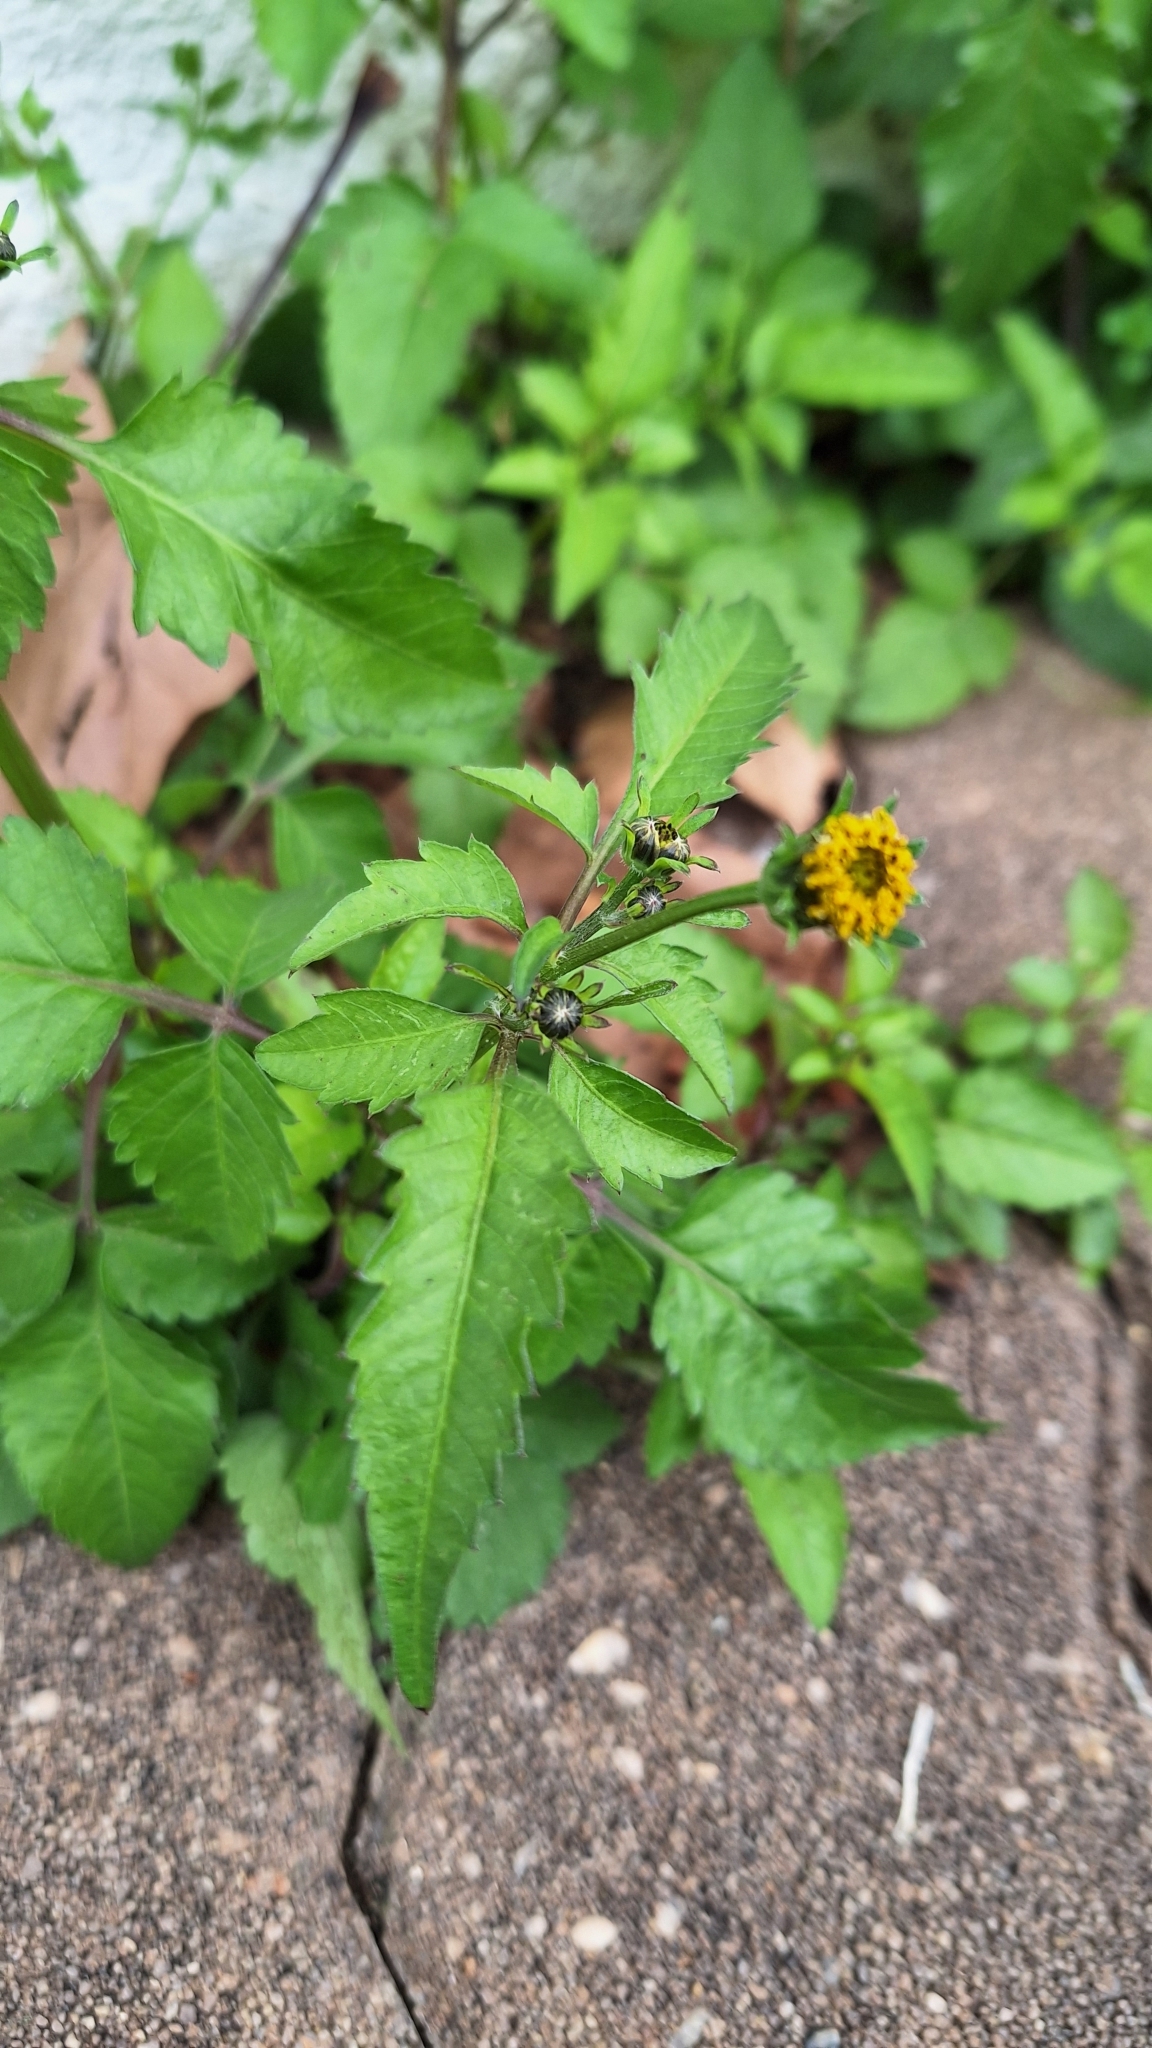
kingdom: Plantae
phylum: Tracheophyta
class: Magnoliopsida
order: Asterales
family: Asteraceae
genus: Bidens
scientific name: Bidens pilosa
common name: Black-jack
